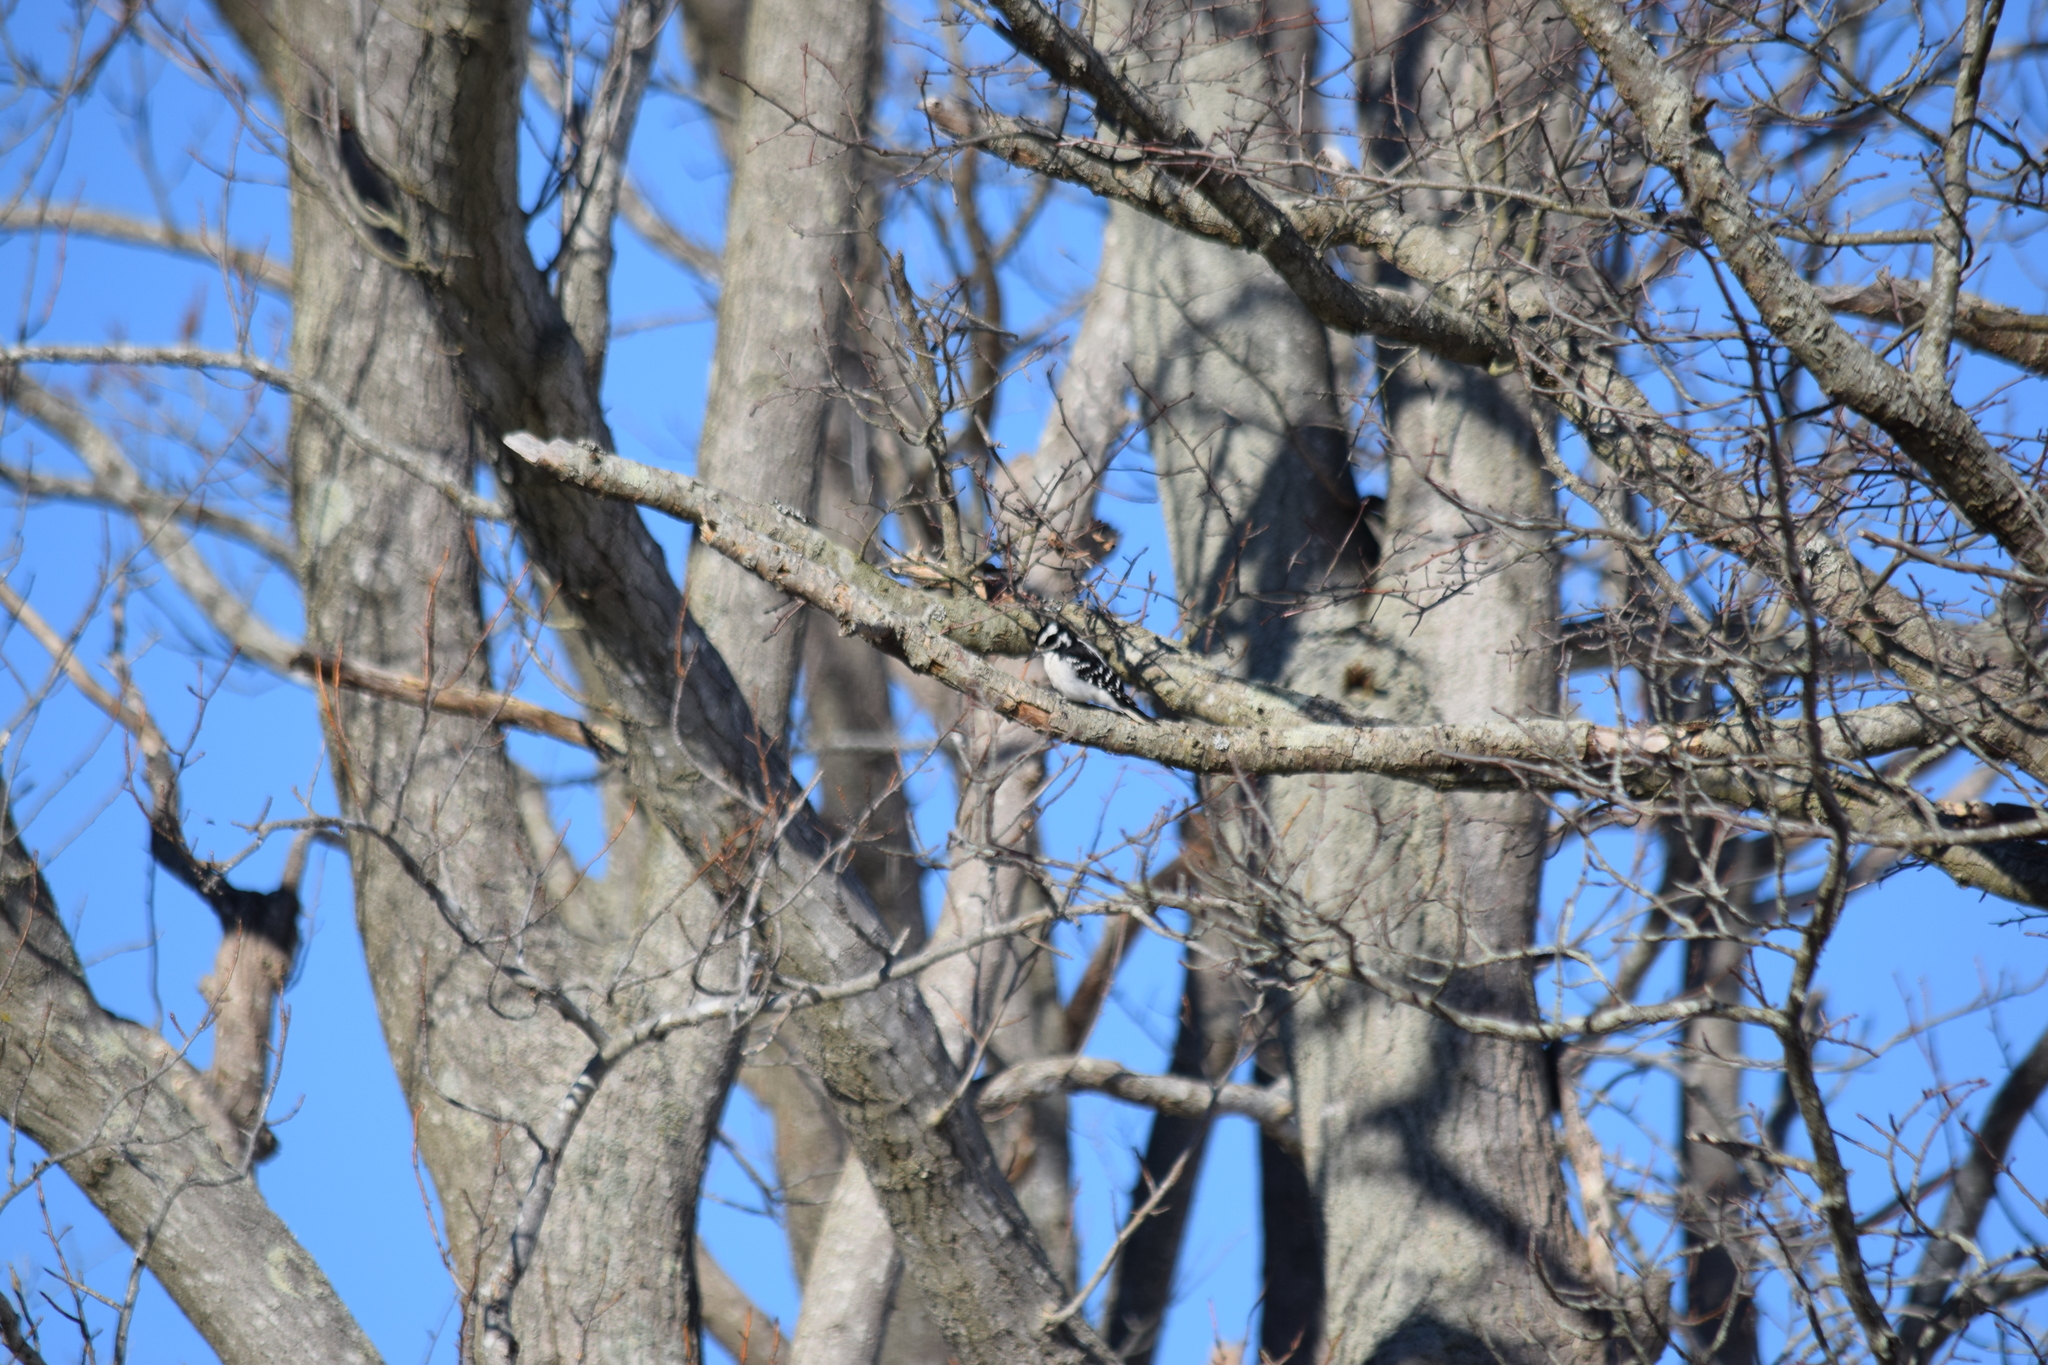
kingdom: Animalia
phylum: Chordata
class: Aves
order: Piciformes
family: Picidae
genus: Dryobates
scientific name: Dryobates pubescens
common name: Downy woodpecker
